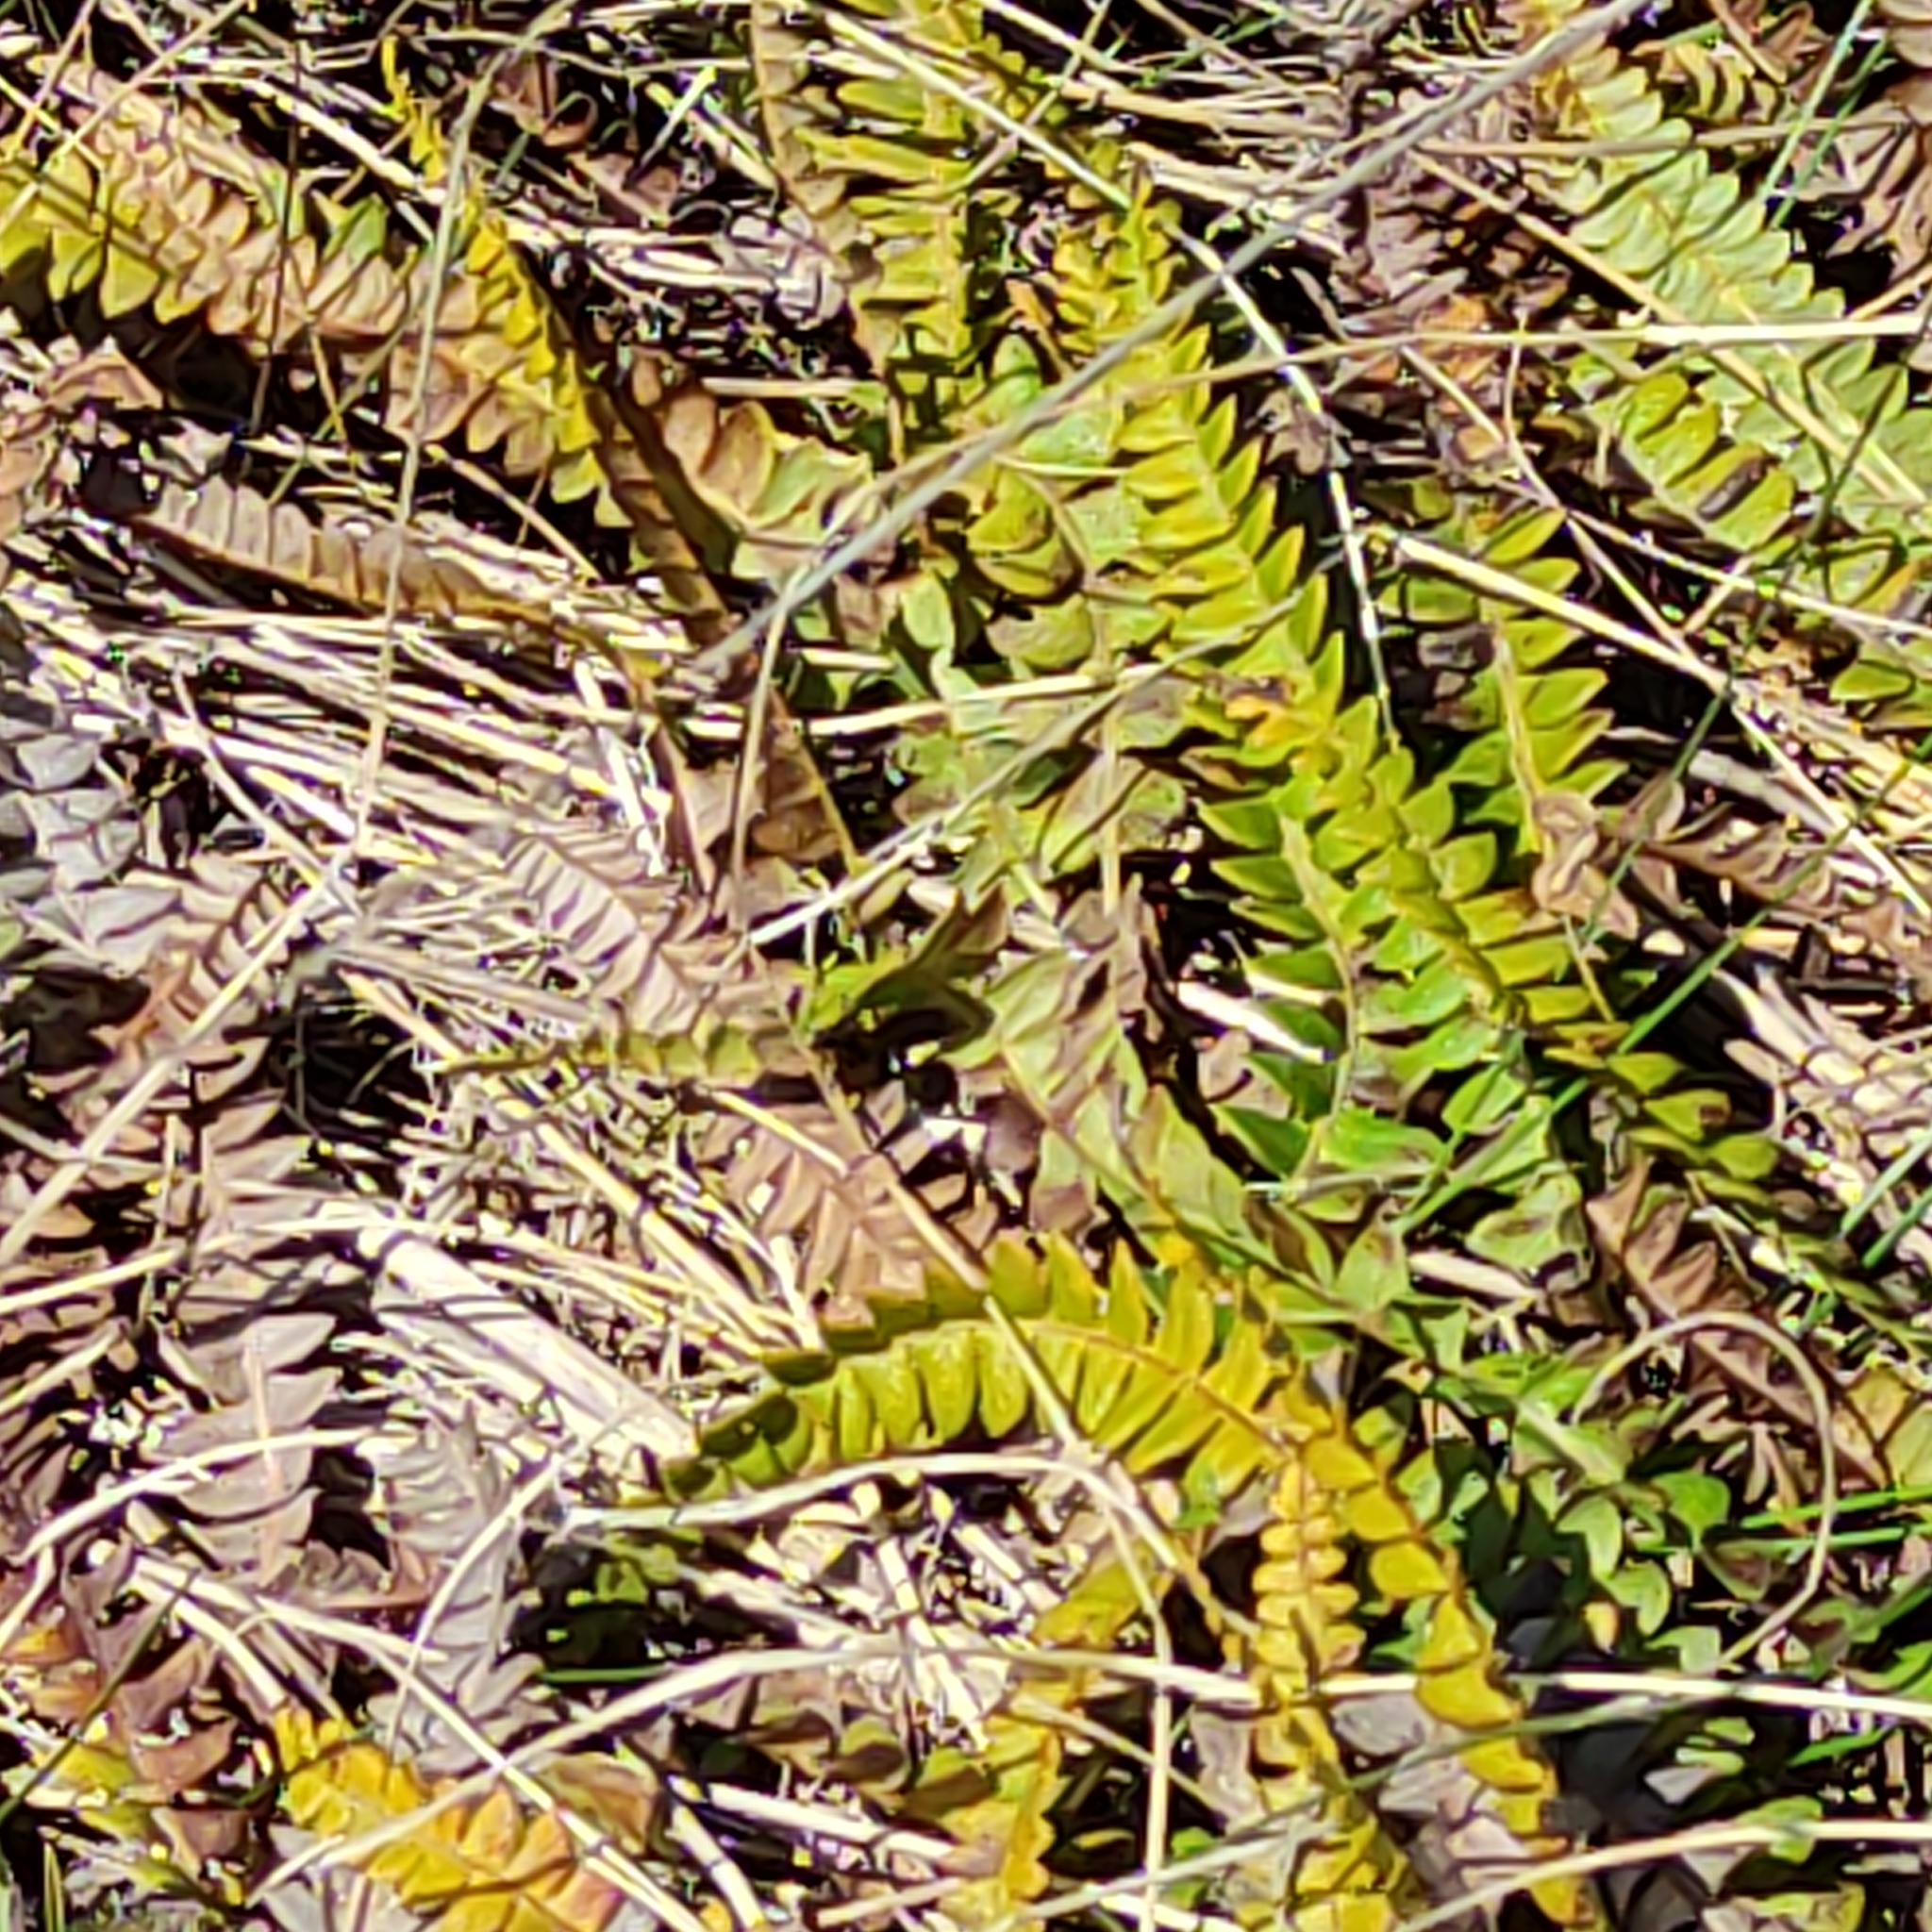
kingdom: Plantae
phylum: Tracheophyta
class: Polypodiopsida
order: Polypodiales
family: Blechnaceae
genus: Austroblechnum
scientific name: Austroblechnum penna-marina
